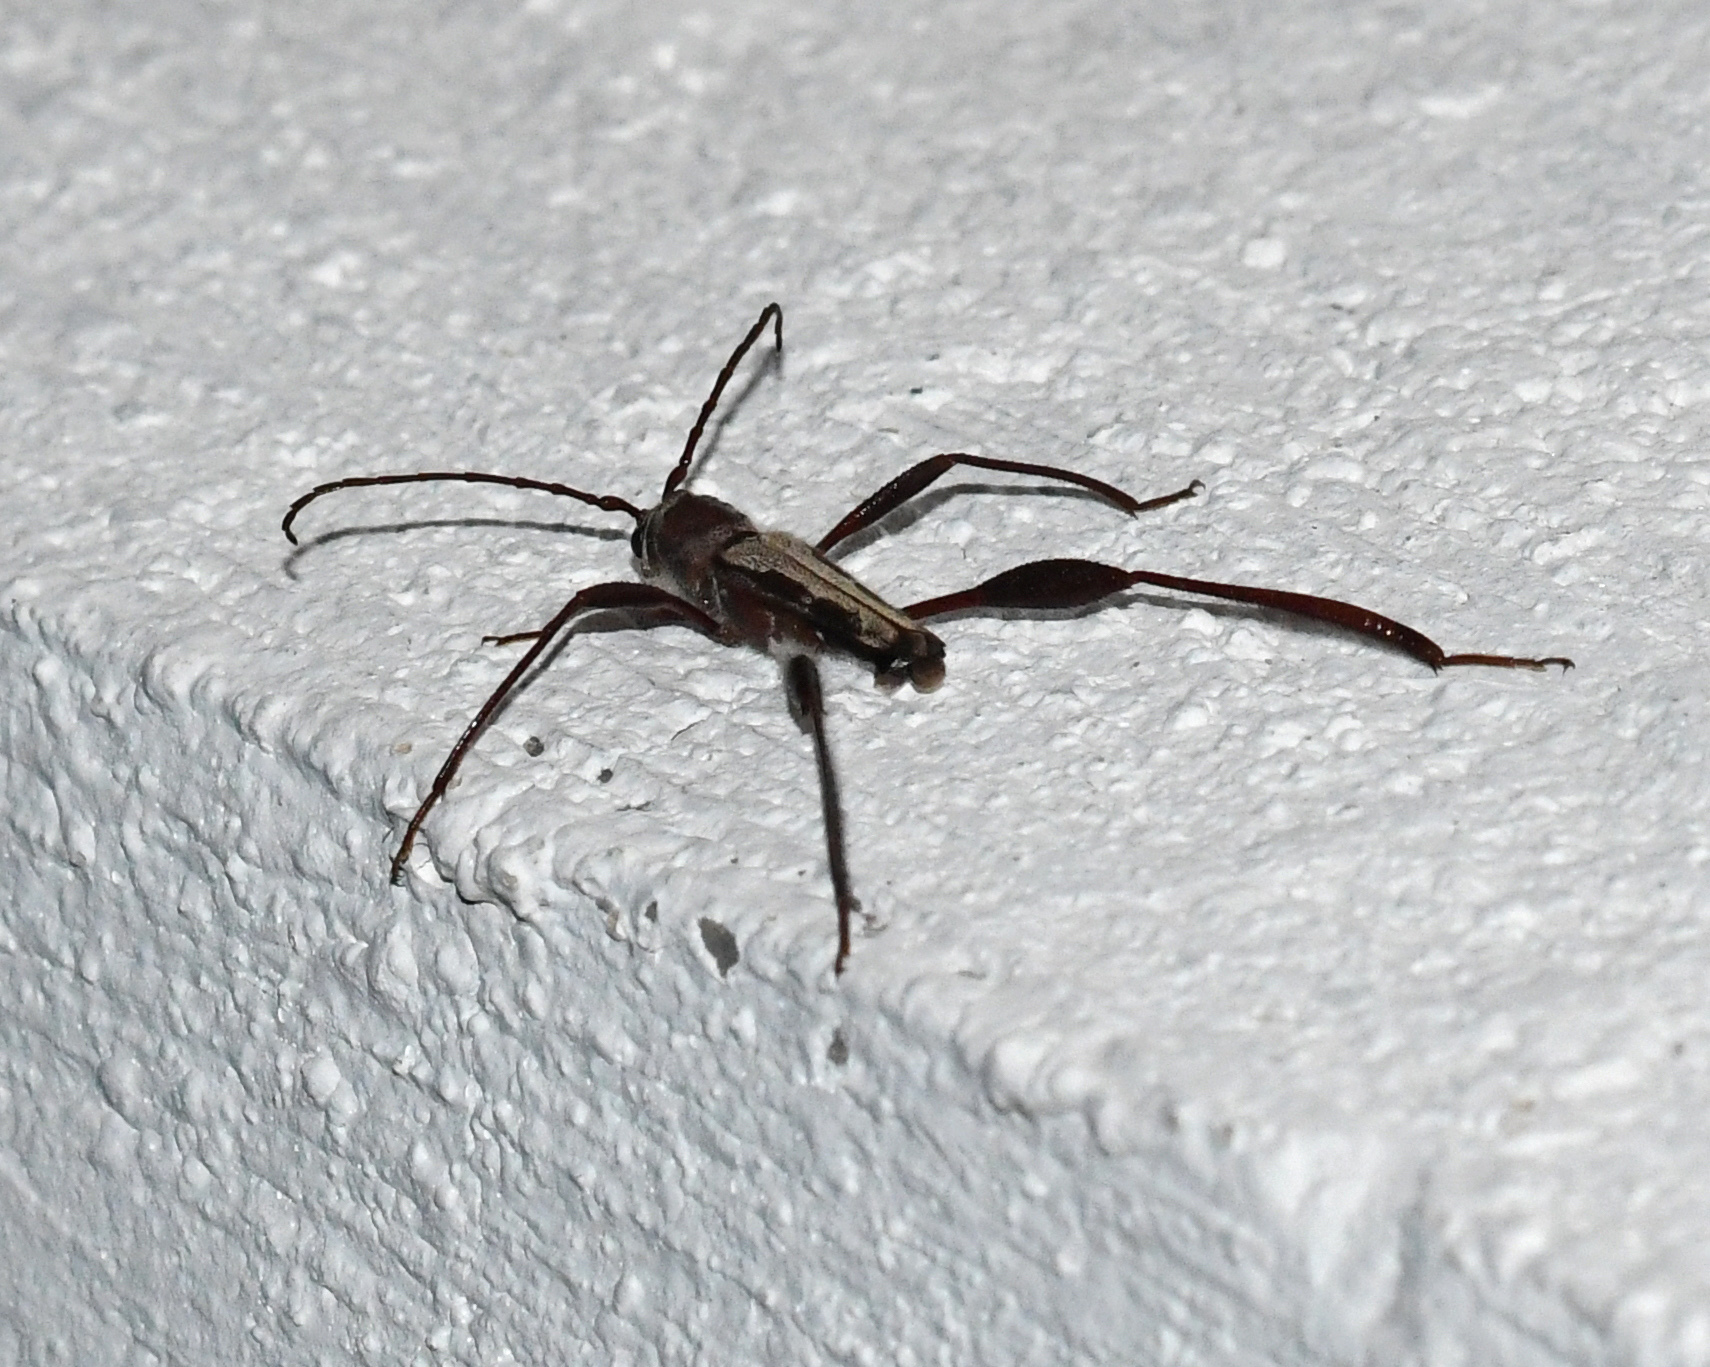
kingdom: Animalia
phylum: Arthropoda
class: Insecta
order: Coleoptera
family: Cerambycidae
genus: Euryscelis
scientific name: Euryscelis suturalis
